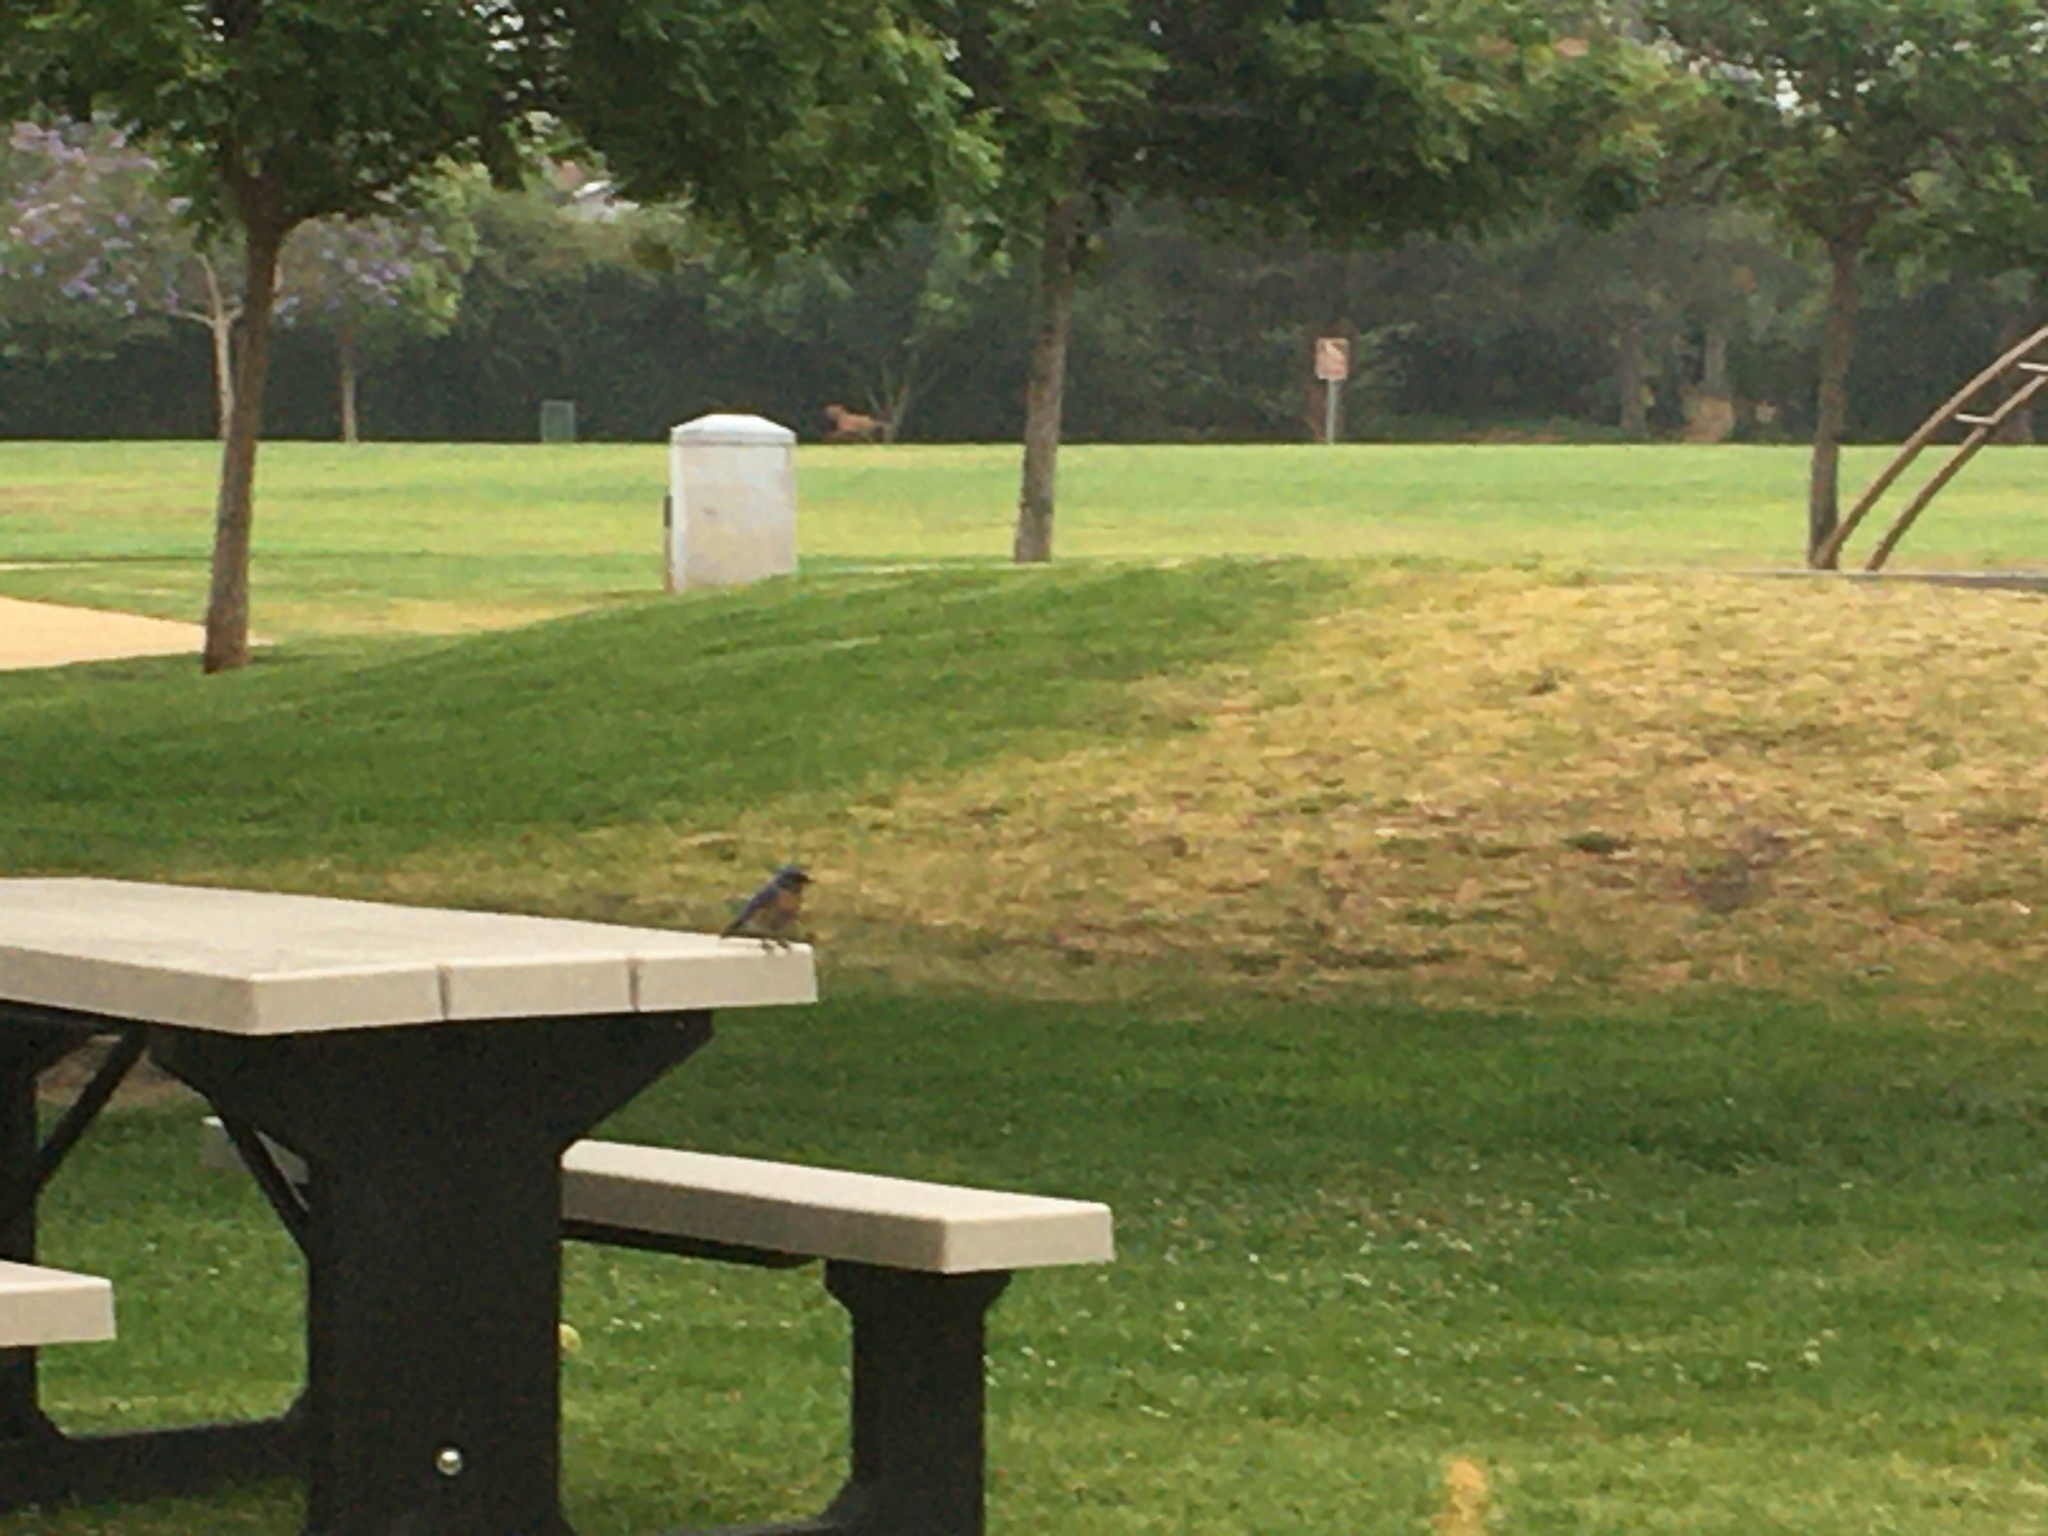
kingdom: Animalia
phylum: Chordata
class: Aves
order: Passeriformes
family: Turdidae
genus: Sialia
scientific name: Sialia mexicana
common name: Western bluebird
